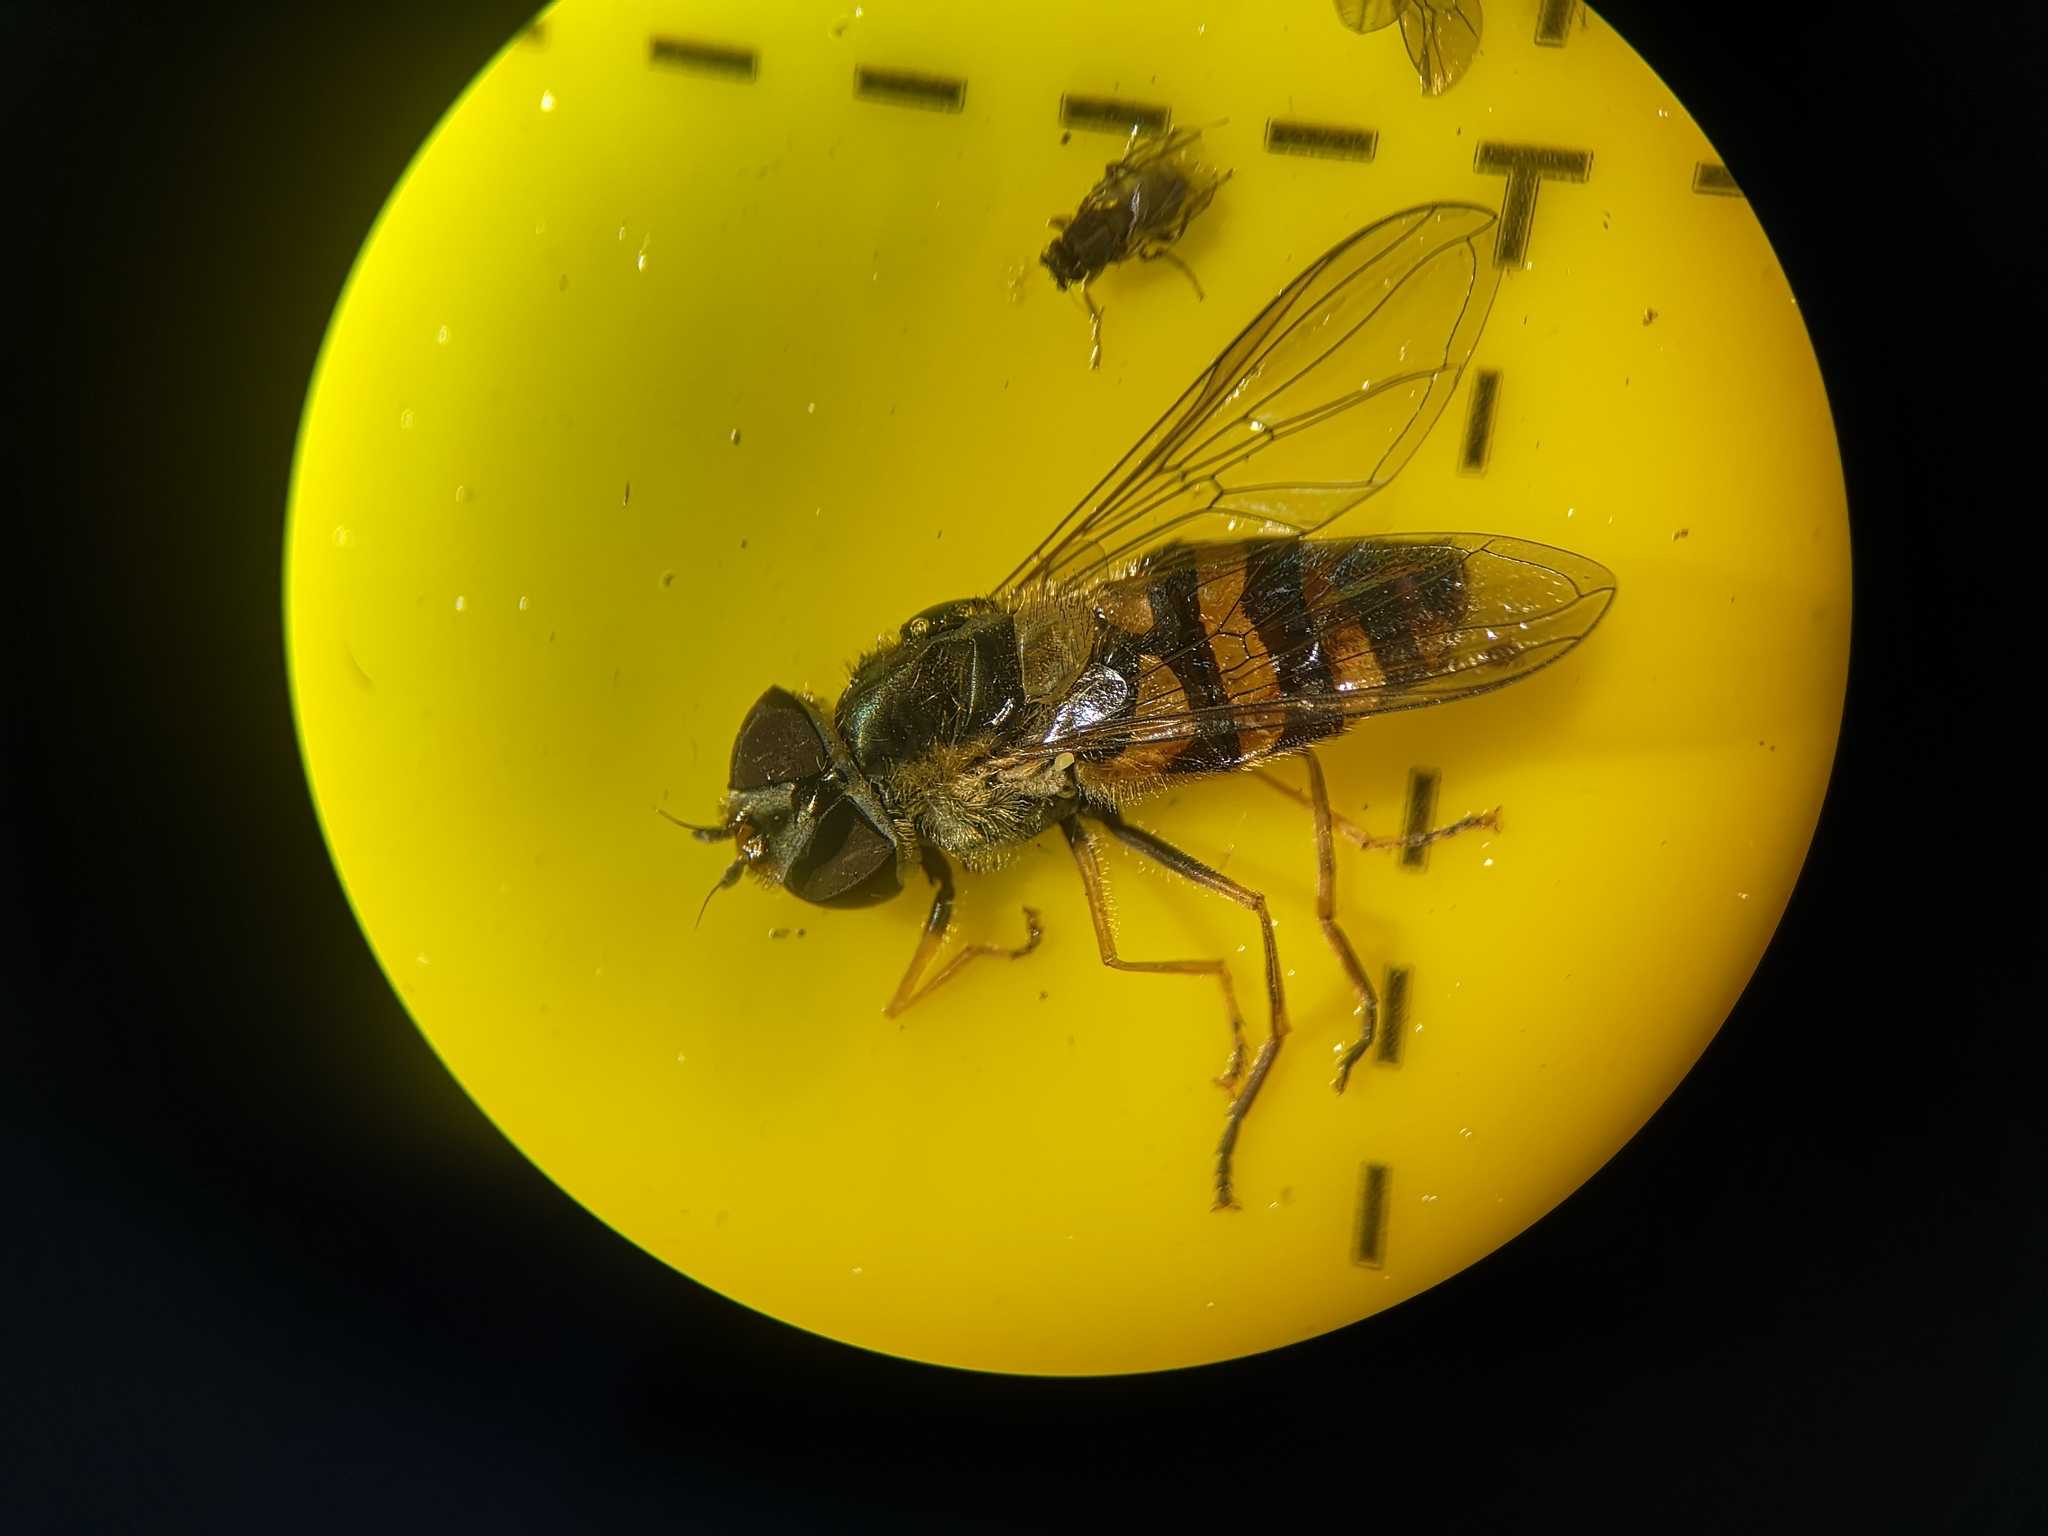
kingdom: Animalia
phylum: Arthropoda
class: Insecta
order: Diptera
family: Syrphidae
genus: Syrphus
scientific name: Syrphus
